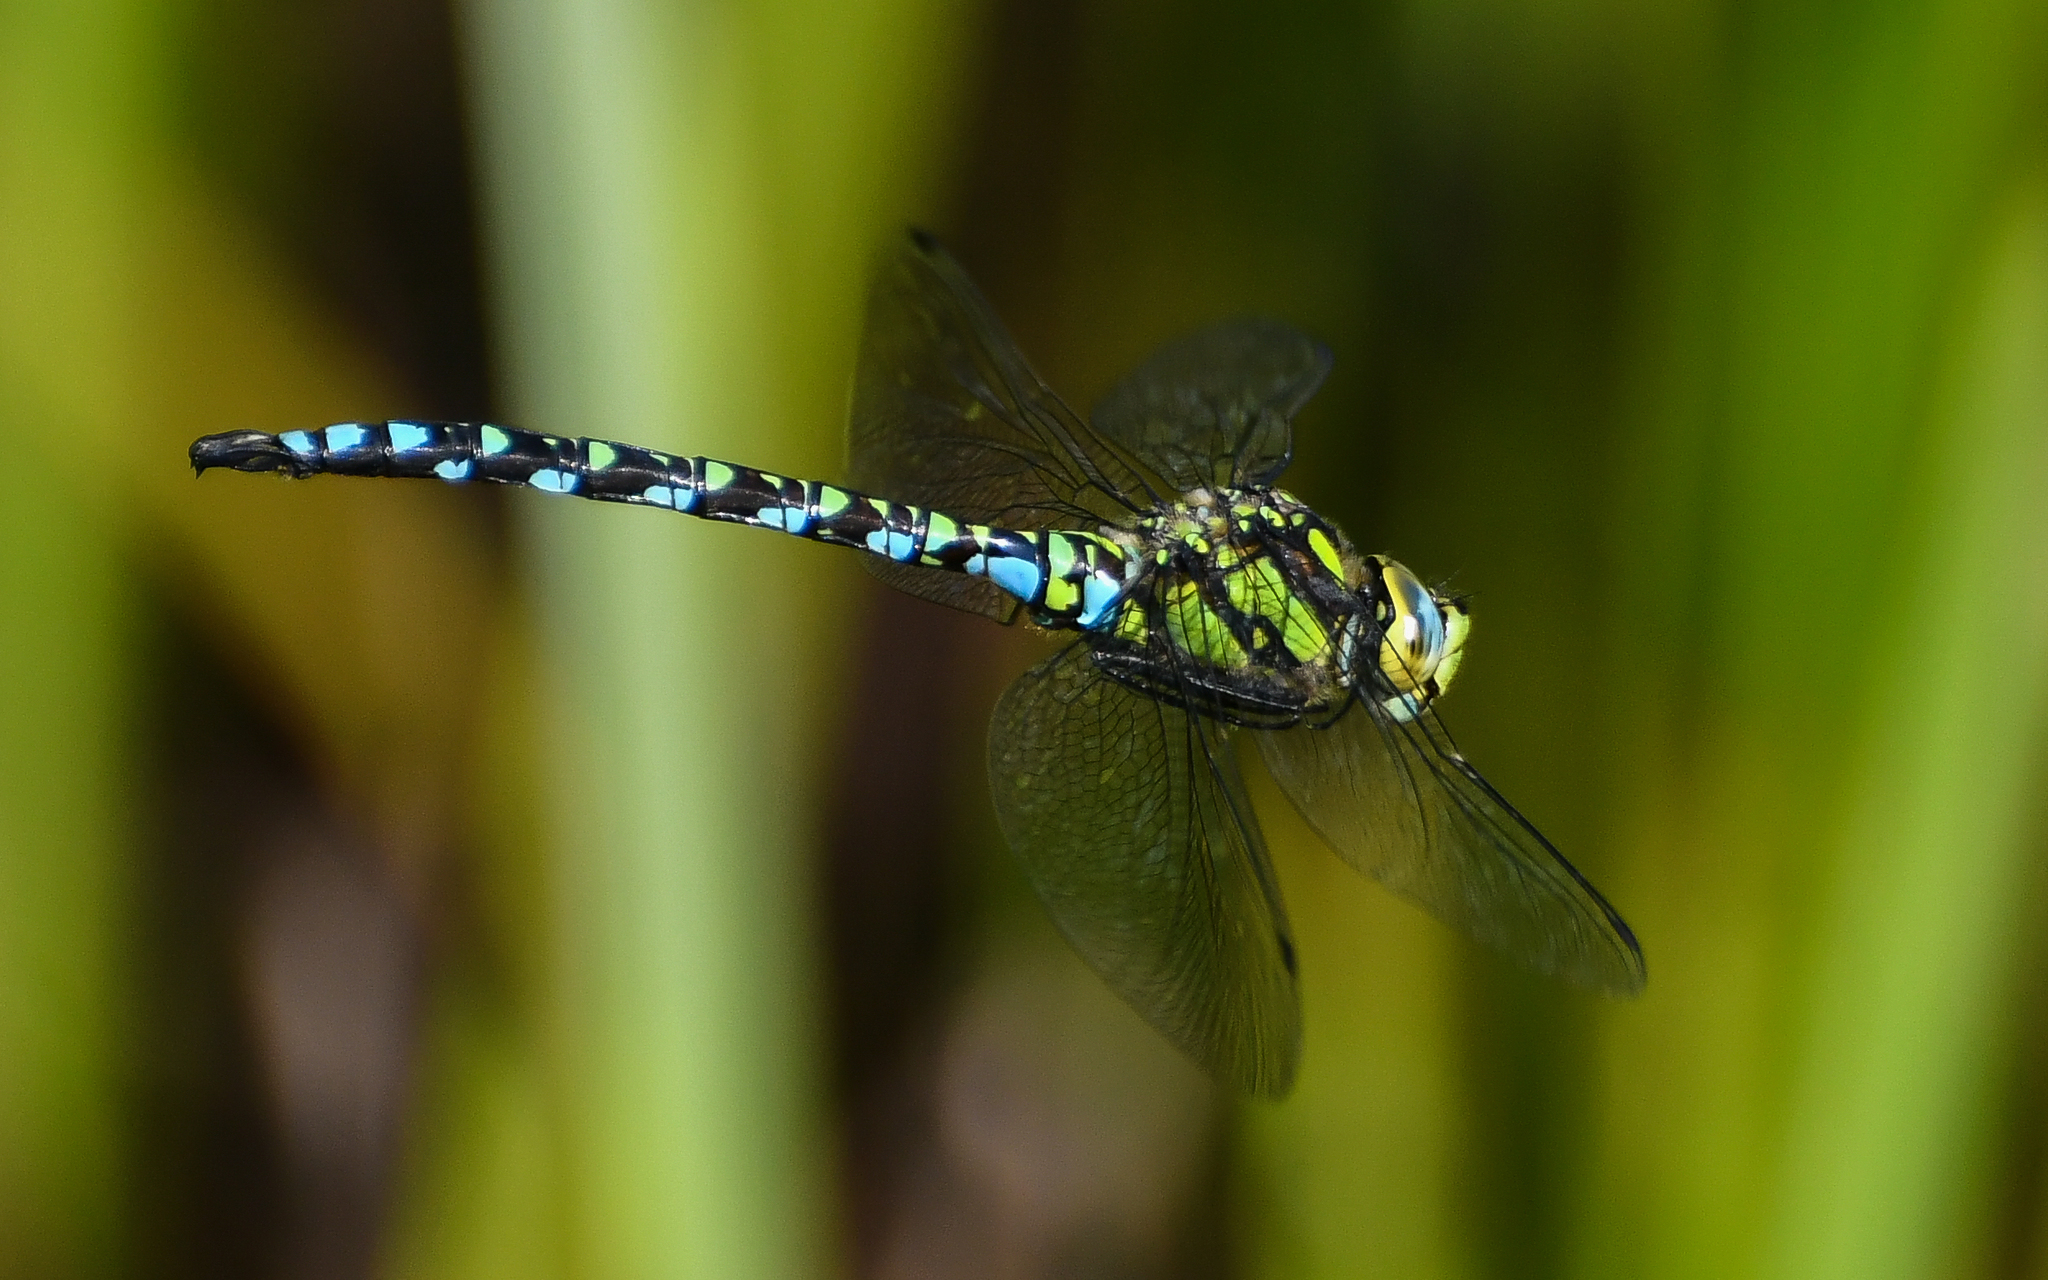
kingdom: Animalia
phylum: Arthropoda
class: Insecta
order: Odonata
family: Aeshnidae
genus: Aeshna
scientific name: Aeshna cyanea
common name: Southern hawker
